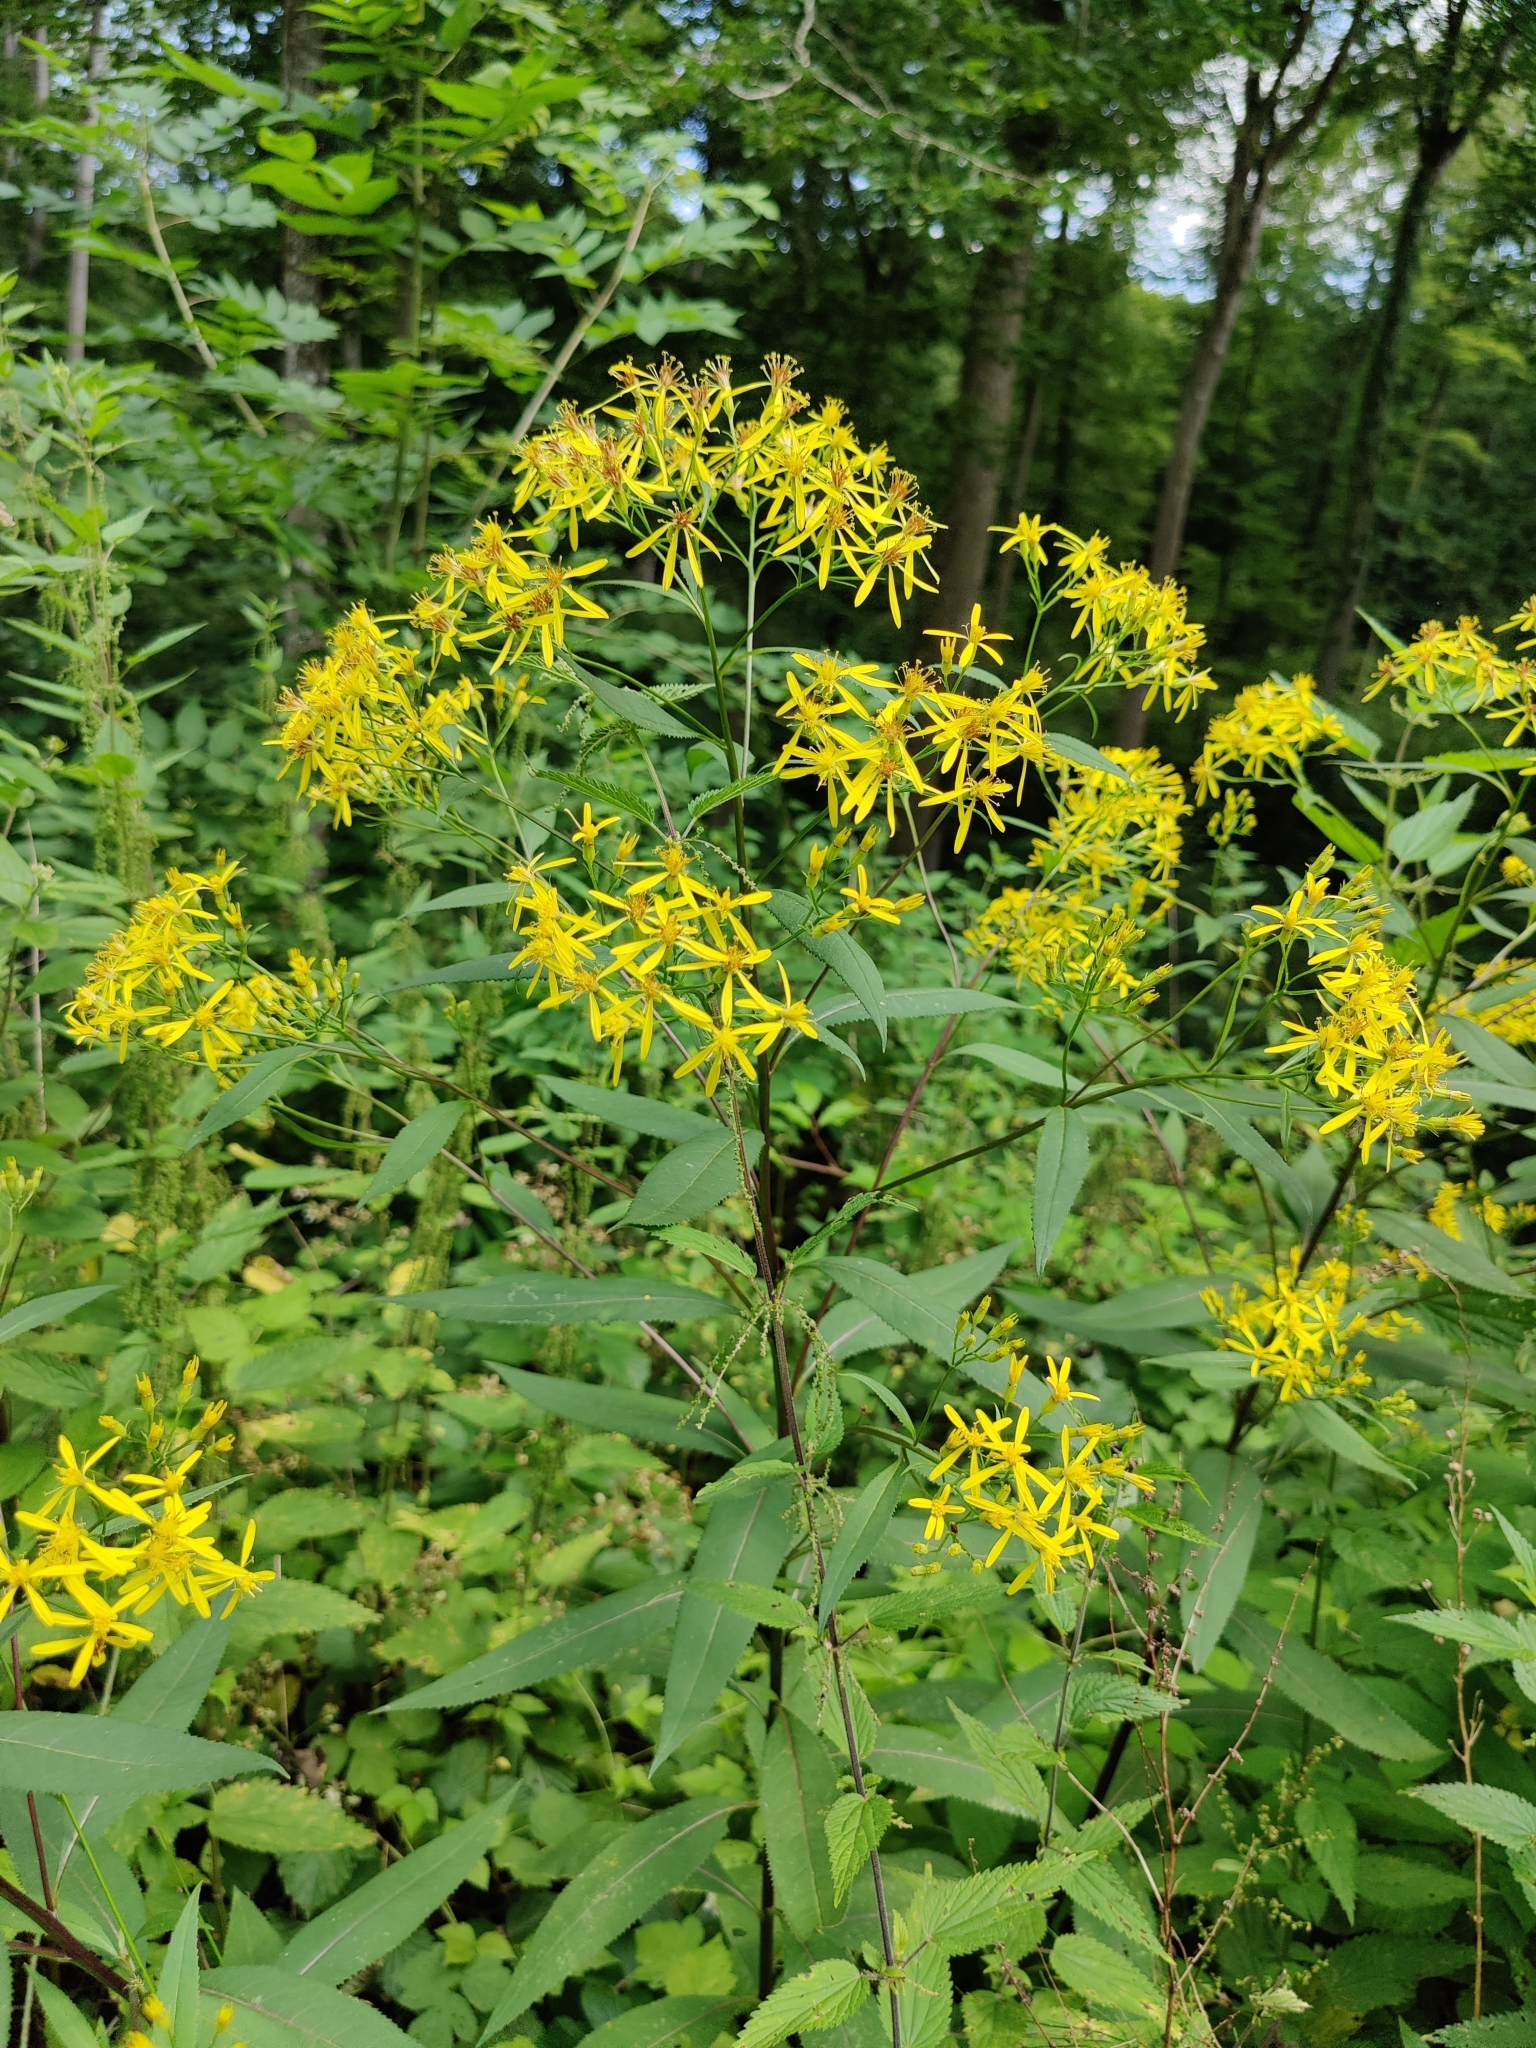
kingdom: Plantae
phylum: Tracheophyta
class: Magnoliopsida
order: Asterales
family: Asteraceae
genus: Senecio
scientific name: Senecio ovatus
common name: Wood ragwort
